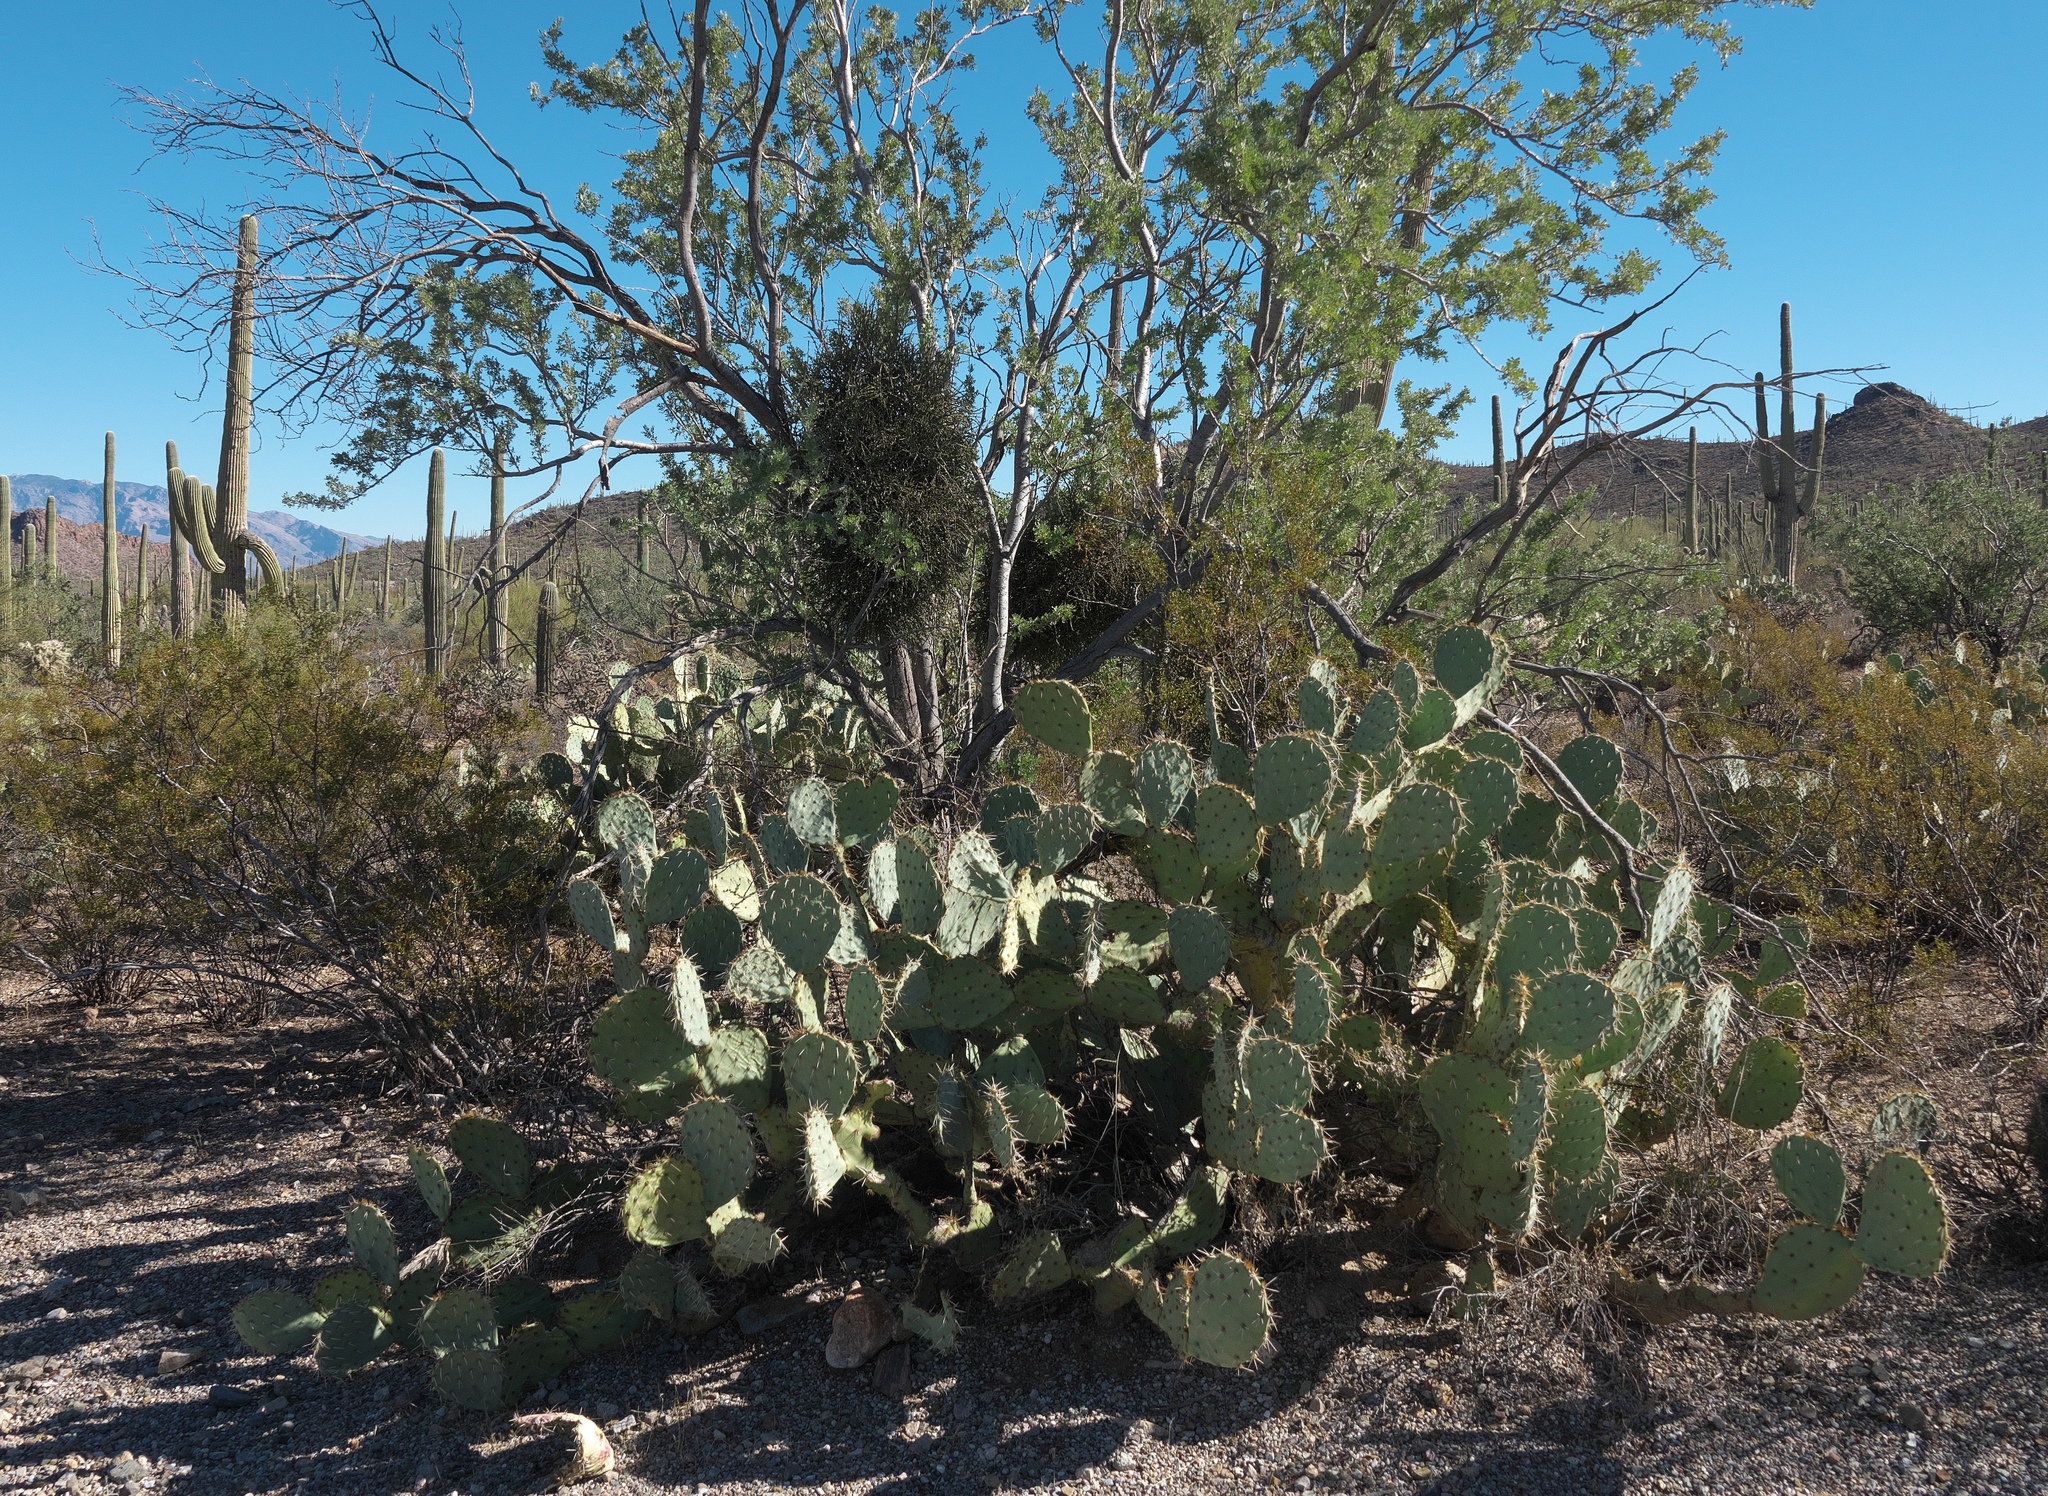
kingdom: Plantae
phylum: Tracheophyta
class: Magnoliopsida
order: Caryophyllales
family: Cactaceae
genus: Opuntia
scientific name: Opuntia engelmannii
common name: Cactus-apple
